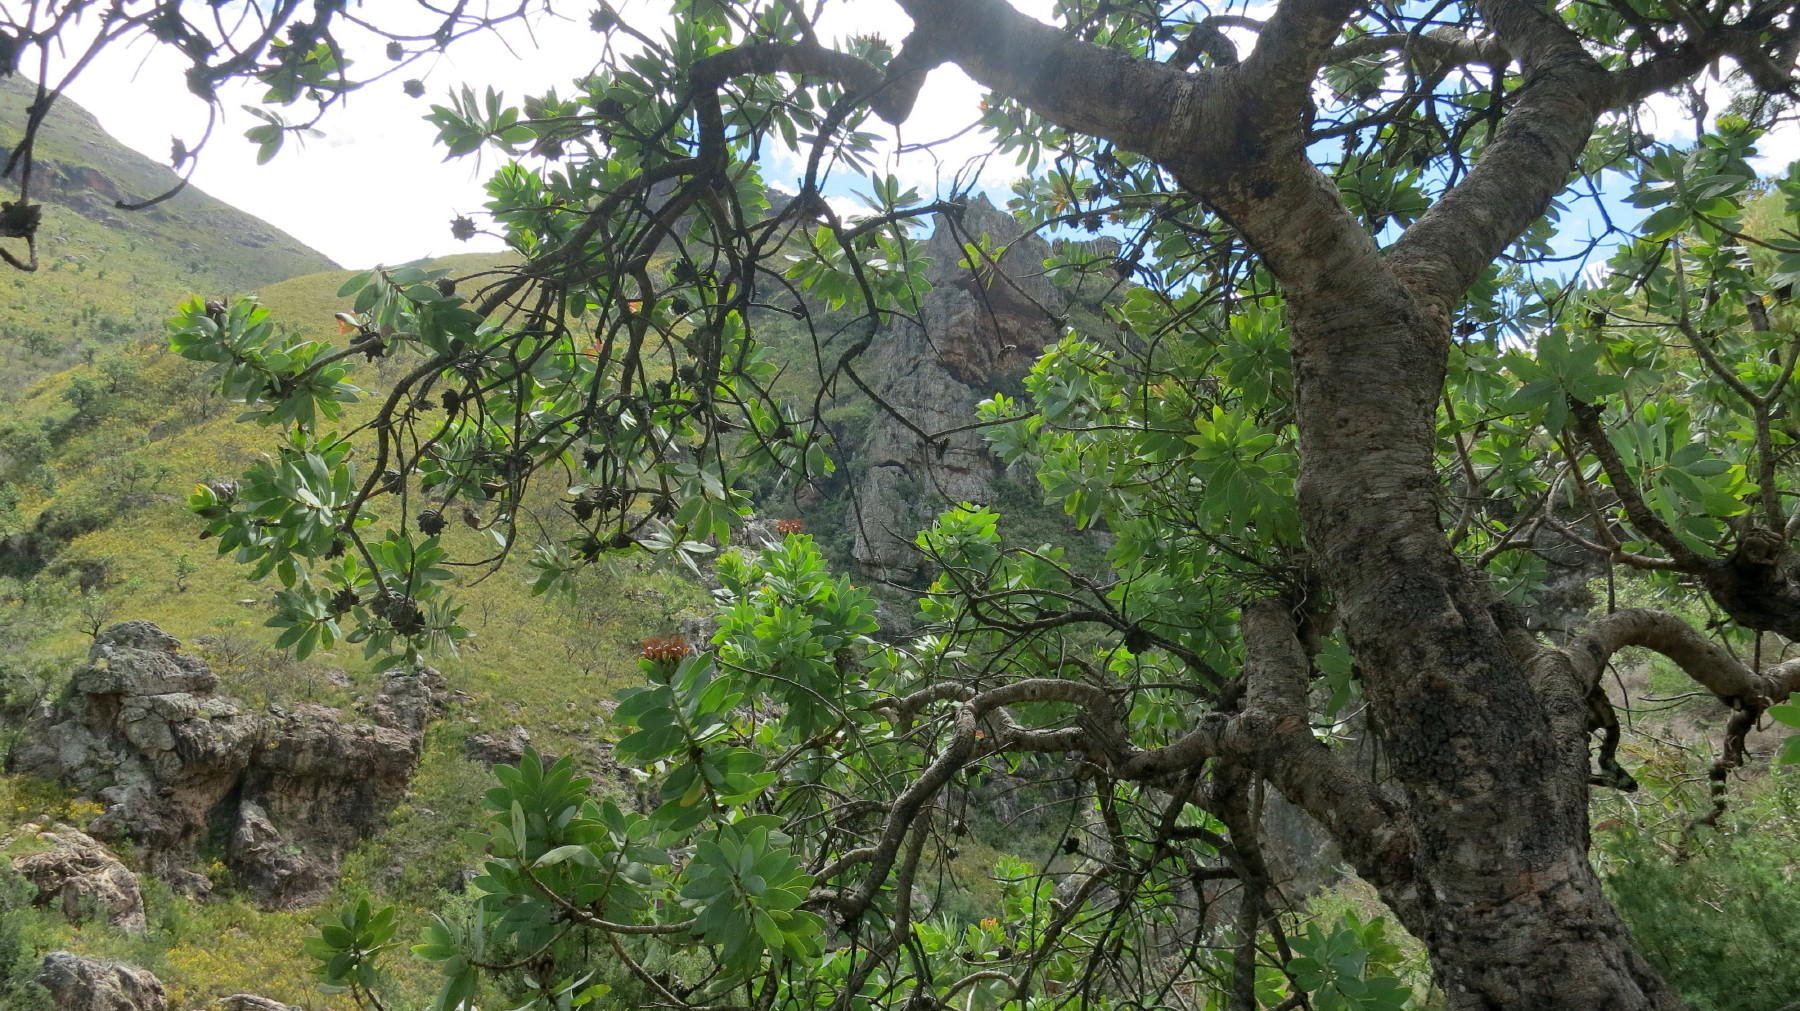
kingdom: Plantae
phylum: Tracheophyta
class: Magnoliopsida
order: Proteales
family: Proteaceae
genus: Protea
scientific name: Protea nitida
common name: Tree protea
